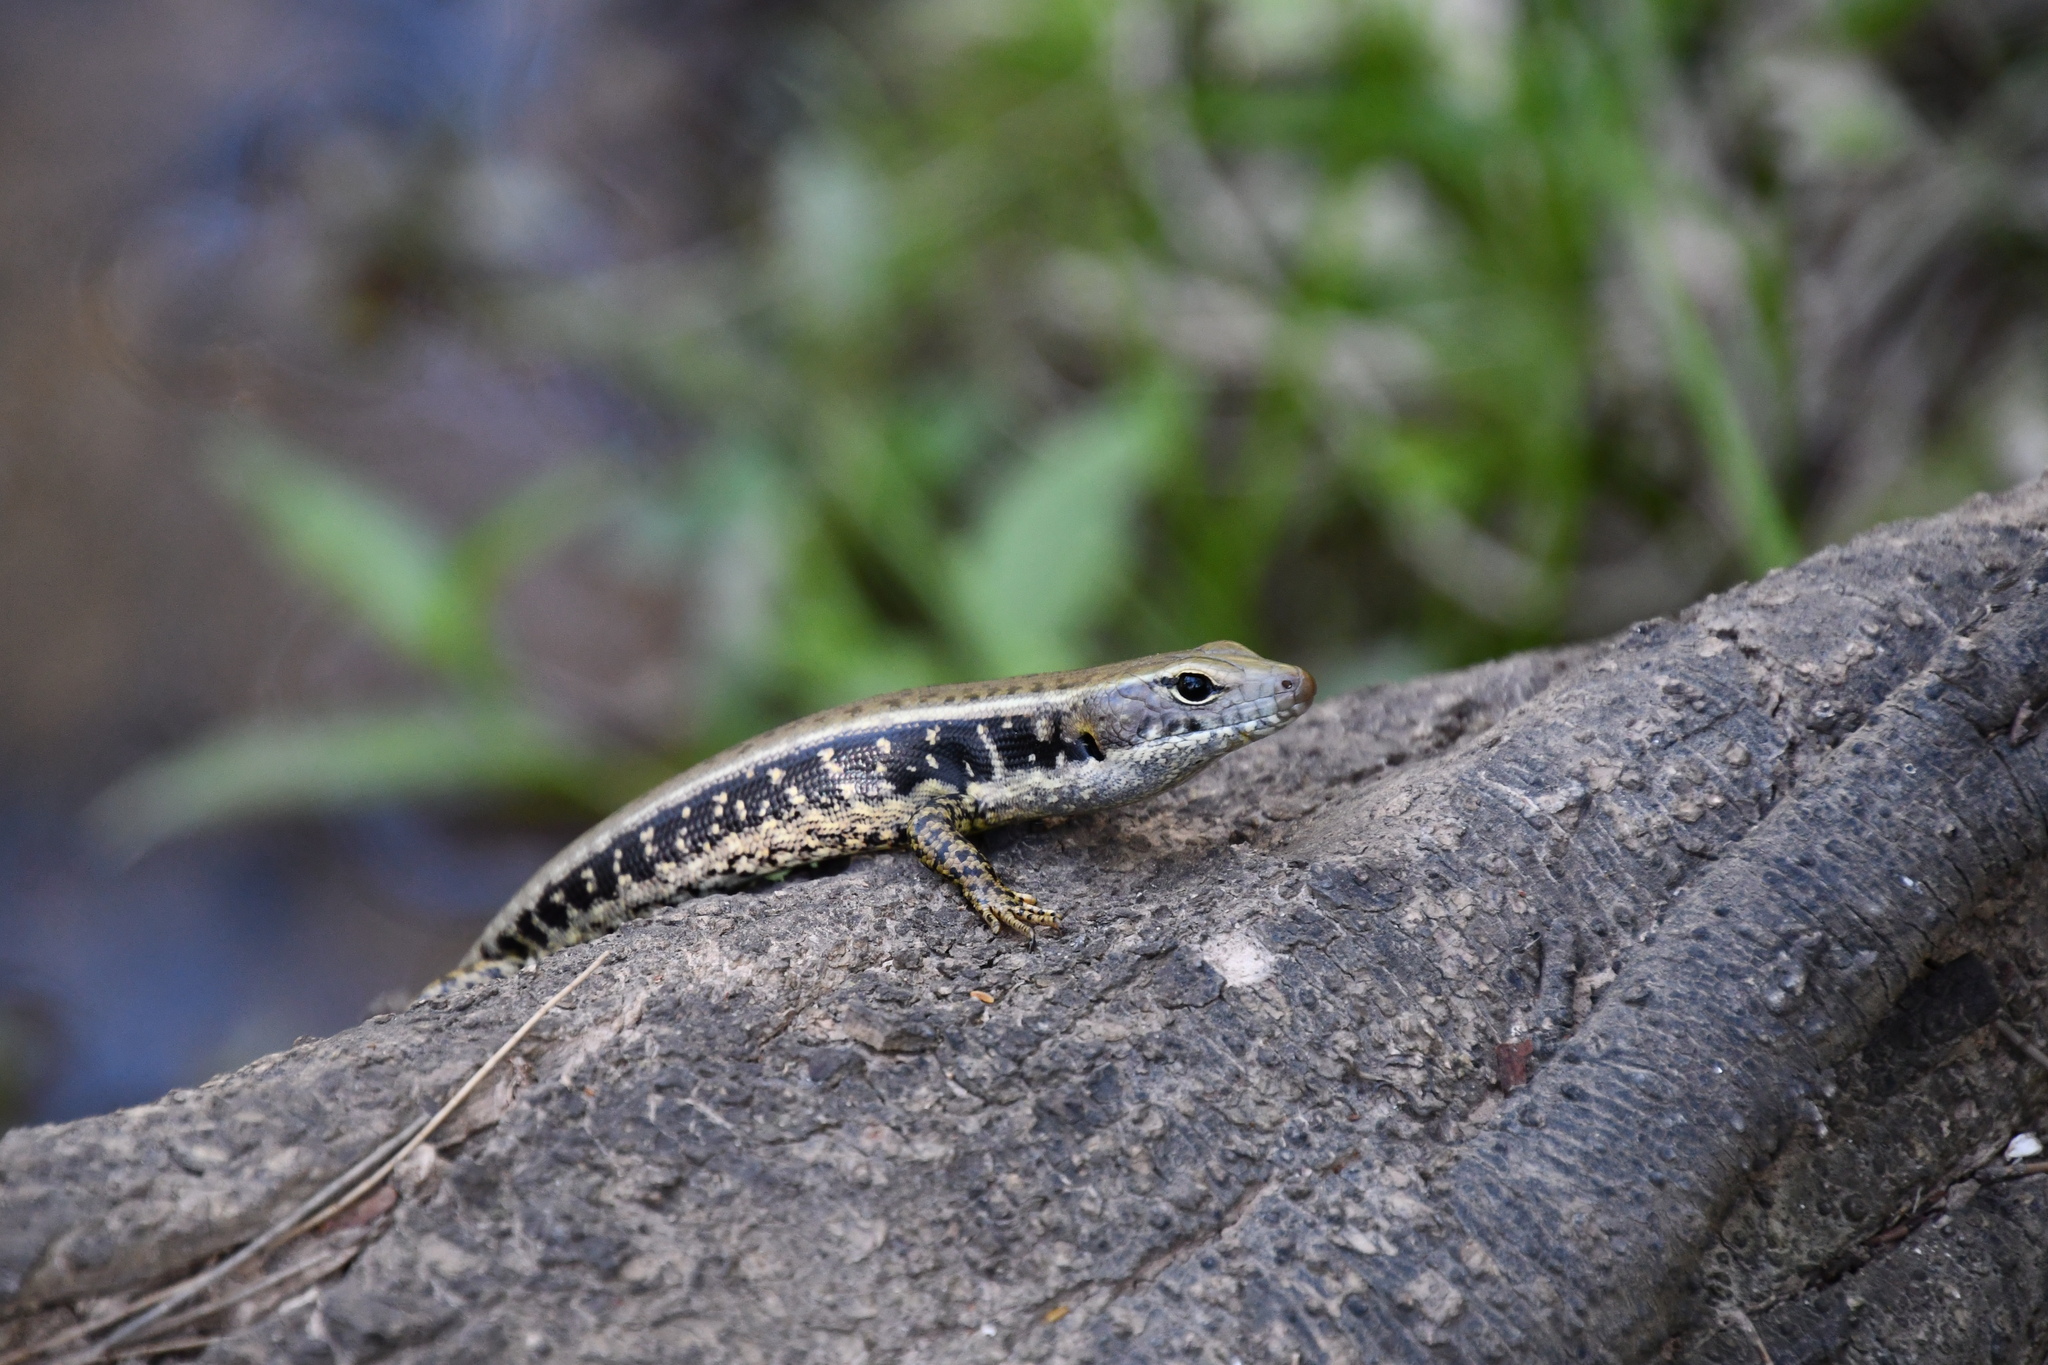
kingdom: Animalia
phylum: Chordata
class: Squamata
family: Scincidae
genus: Eulamprus
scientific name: Eulamprus quoyii
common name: Eastern water skink
